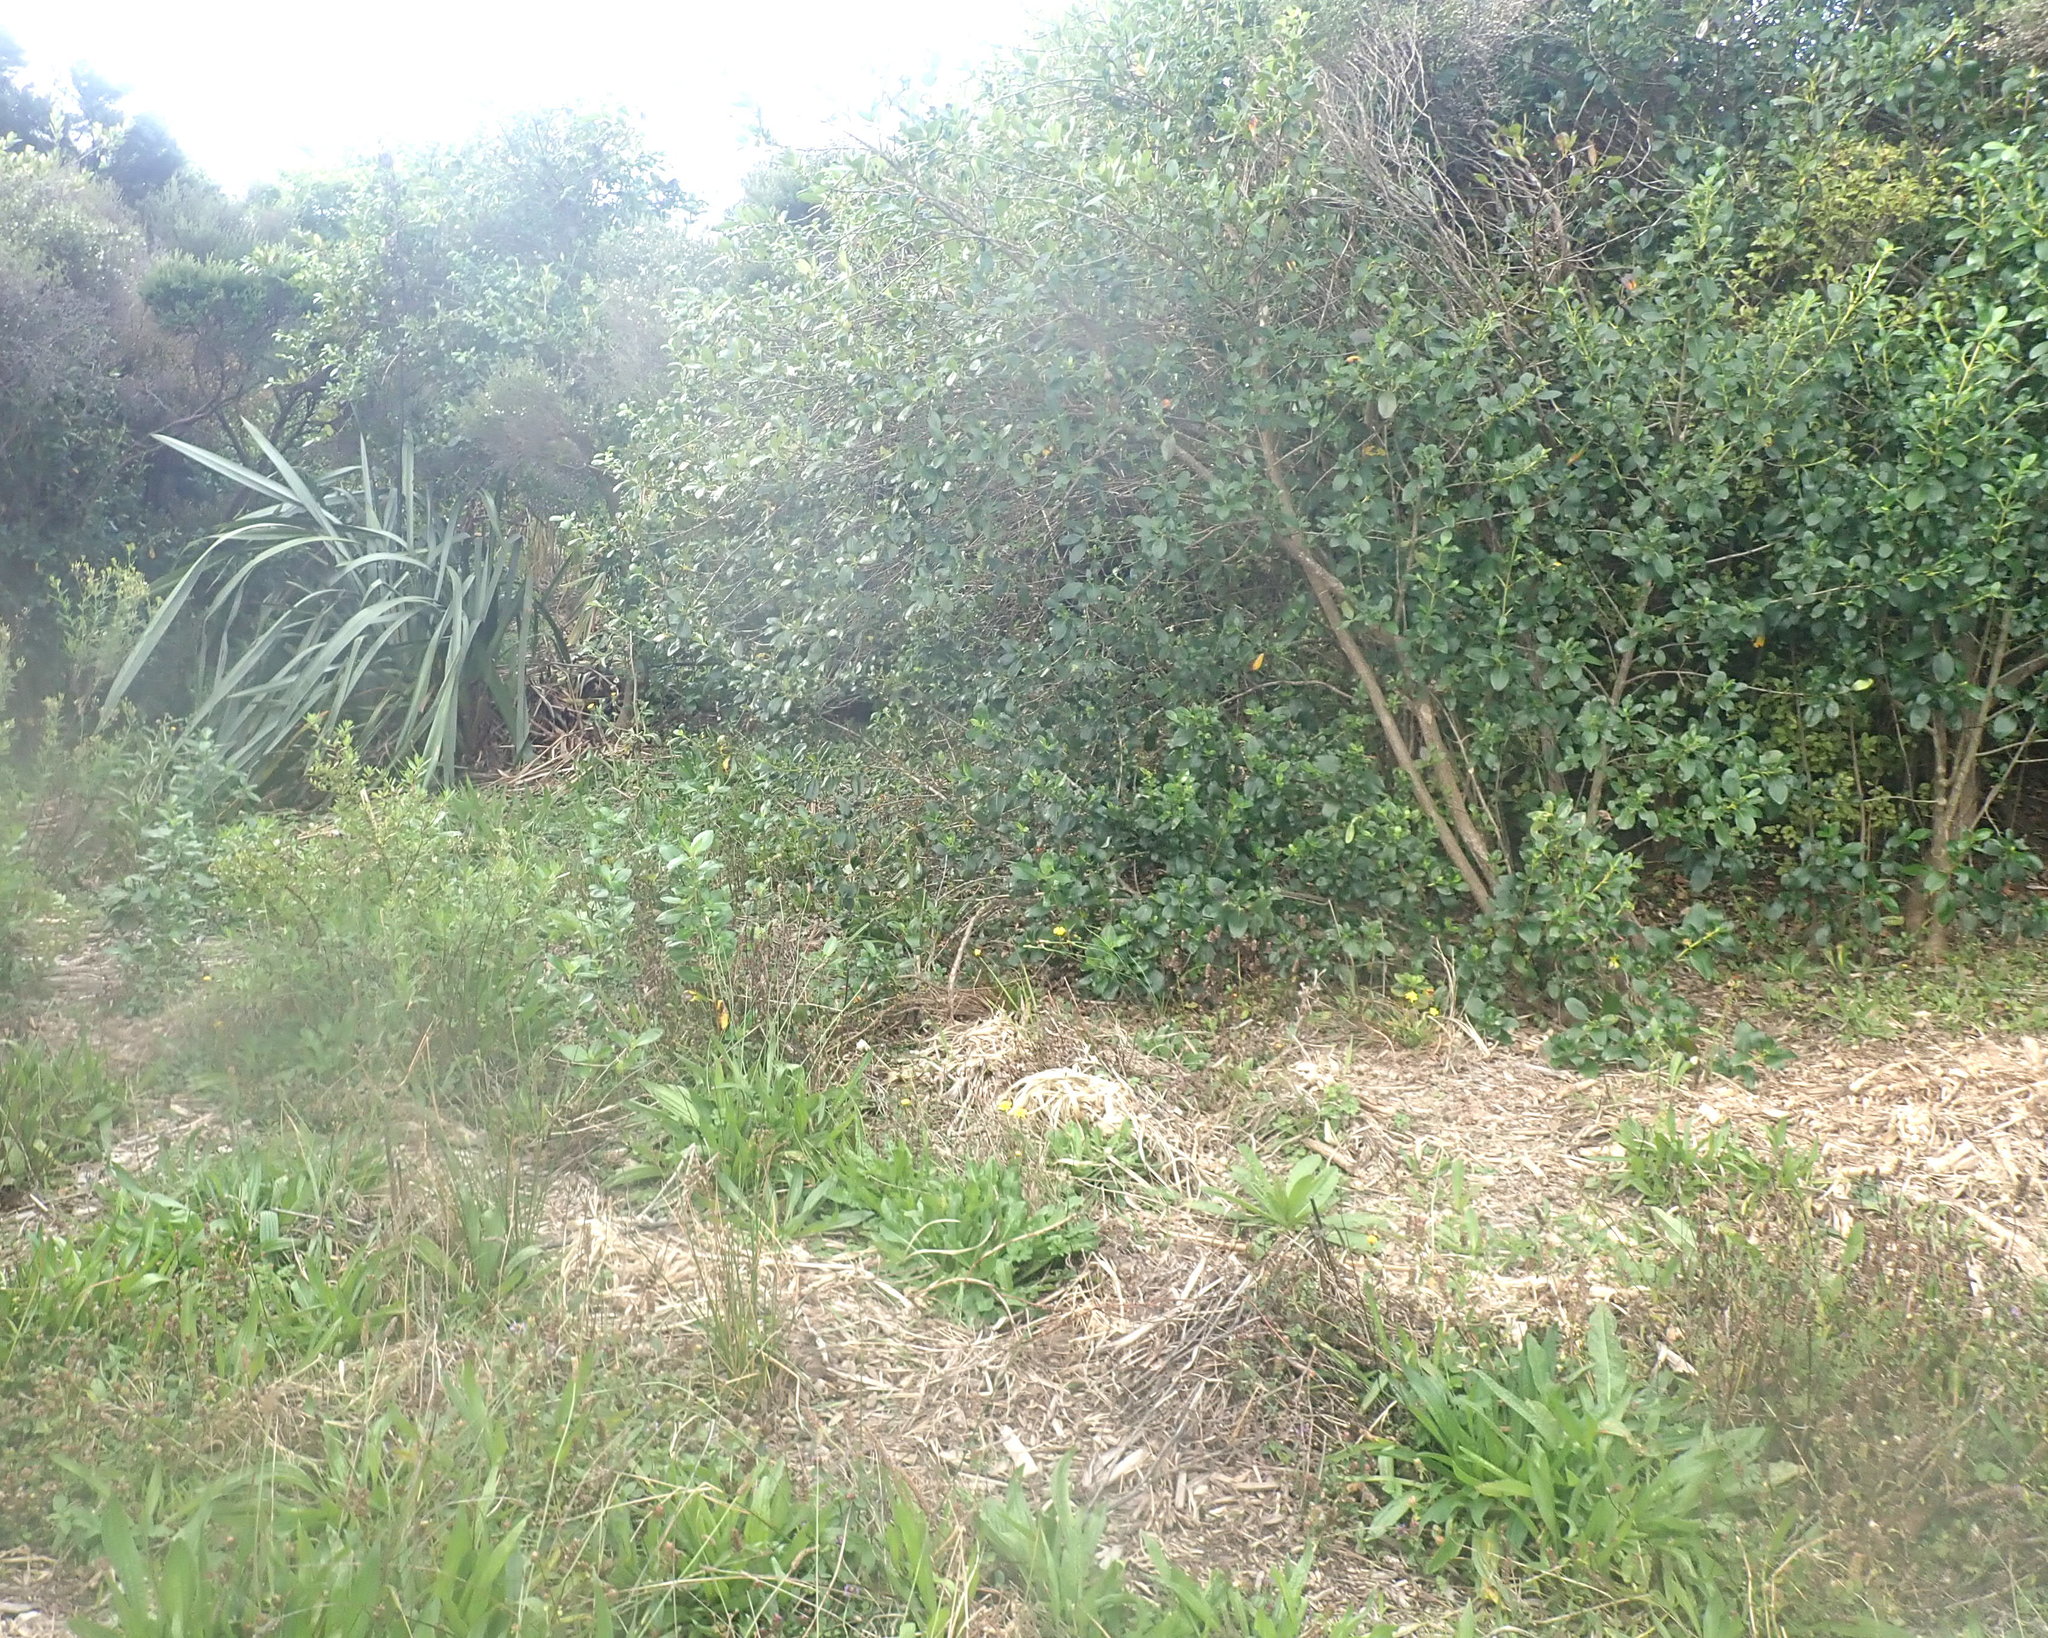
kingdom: Plantae
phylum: Tracheophyta
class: Magnoliopsida
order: Gentianales
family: Rubiaceae
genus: Coprosma
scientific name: Coprosma robusta
